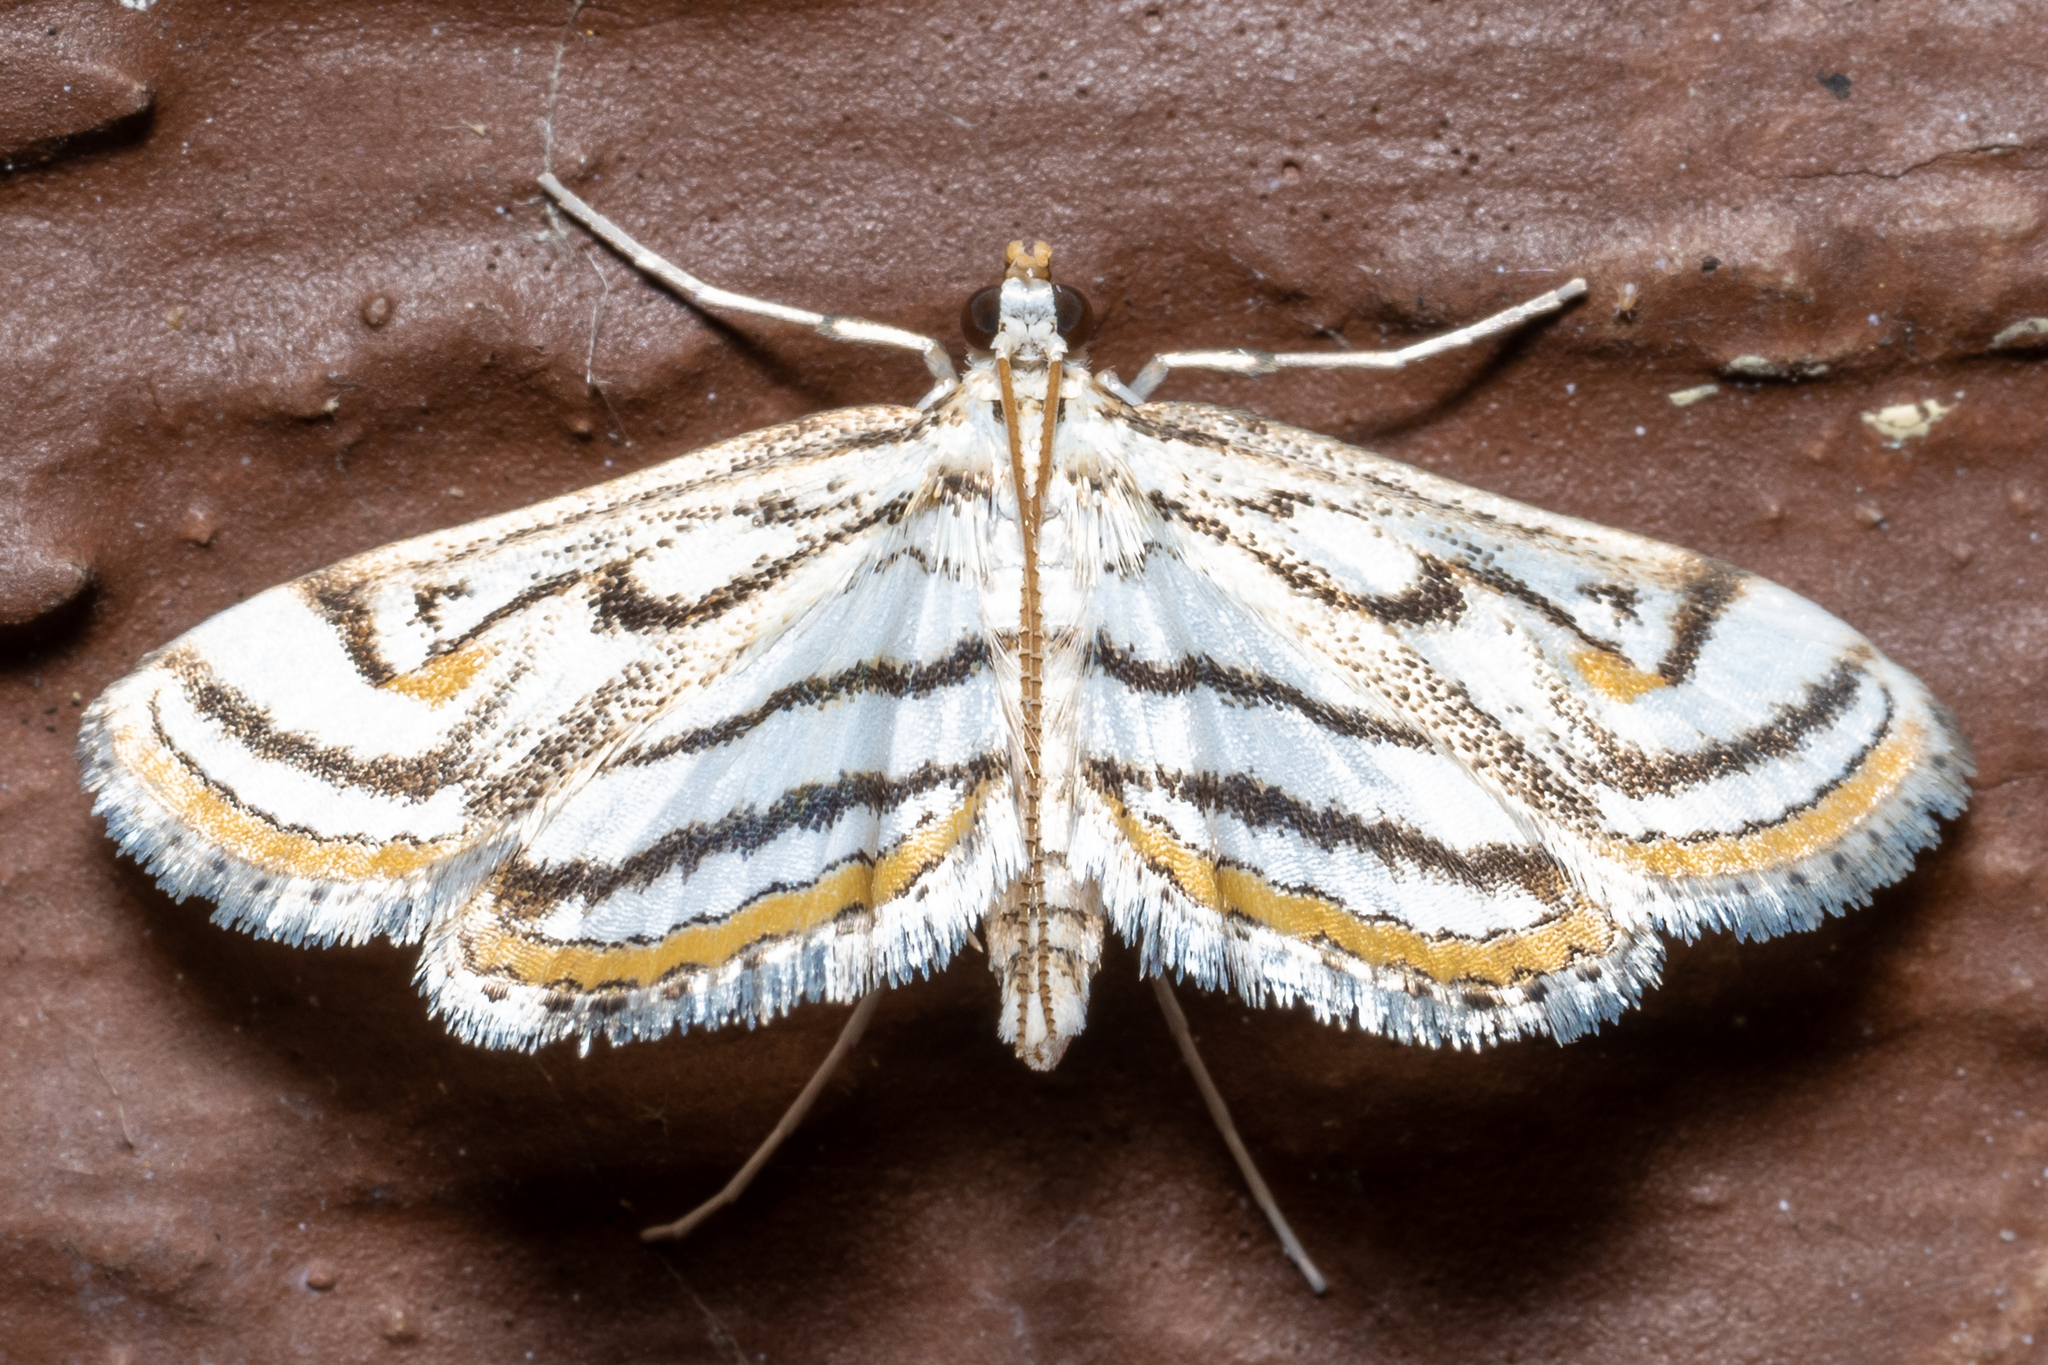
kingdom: Animalia
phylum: Arthropoda
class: Insecta
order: Lepidoptera
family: Crambidae
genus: Parapoynx
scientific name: Parapoynx badiusalis
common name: Chestnut-marked pondweed moth
